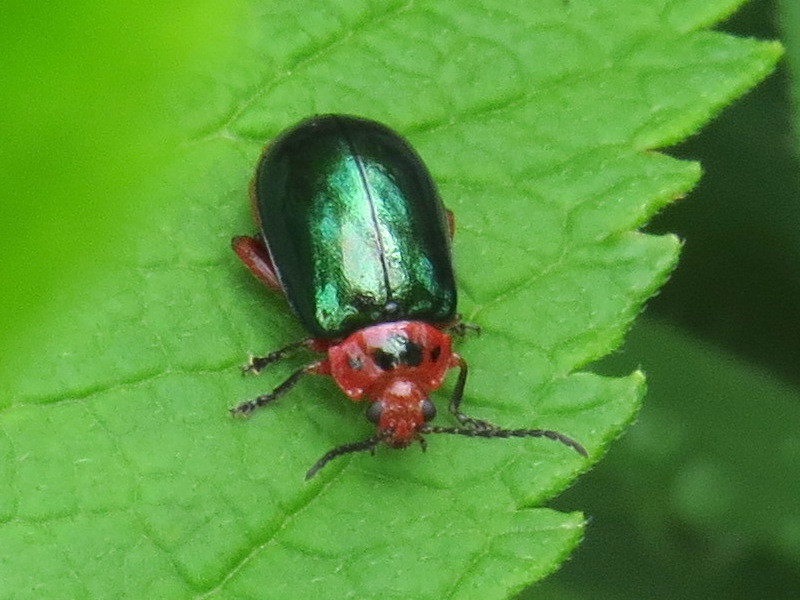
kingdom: Animalia
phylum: Arthropoda
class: Insecta
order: Coleoptera
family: Chrysomelidae
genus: Kuschelina
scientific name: Kuschelina gibbitarsa
